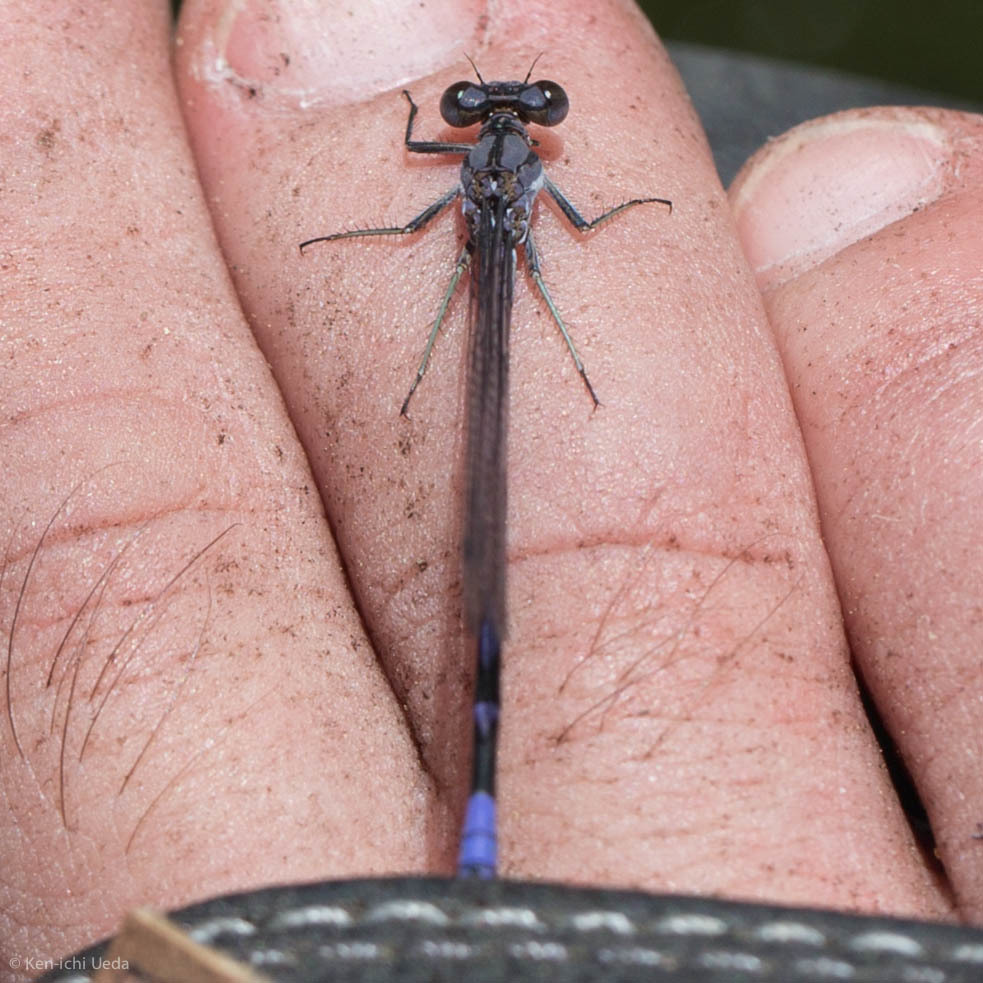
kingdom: Animalia
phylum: Arthropoda
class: Insecta
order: Odonata
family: Coenagrionidae
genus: Argia
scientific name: Argia emma
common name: Emma's dancer
